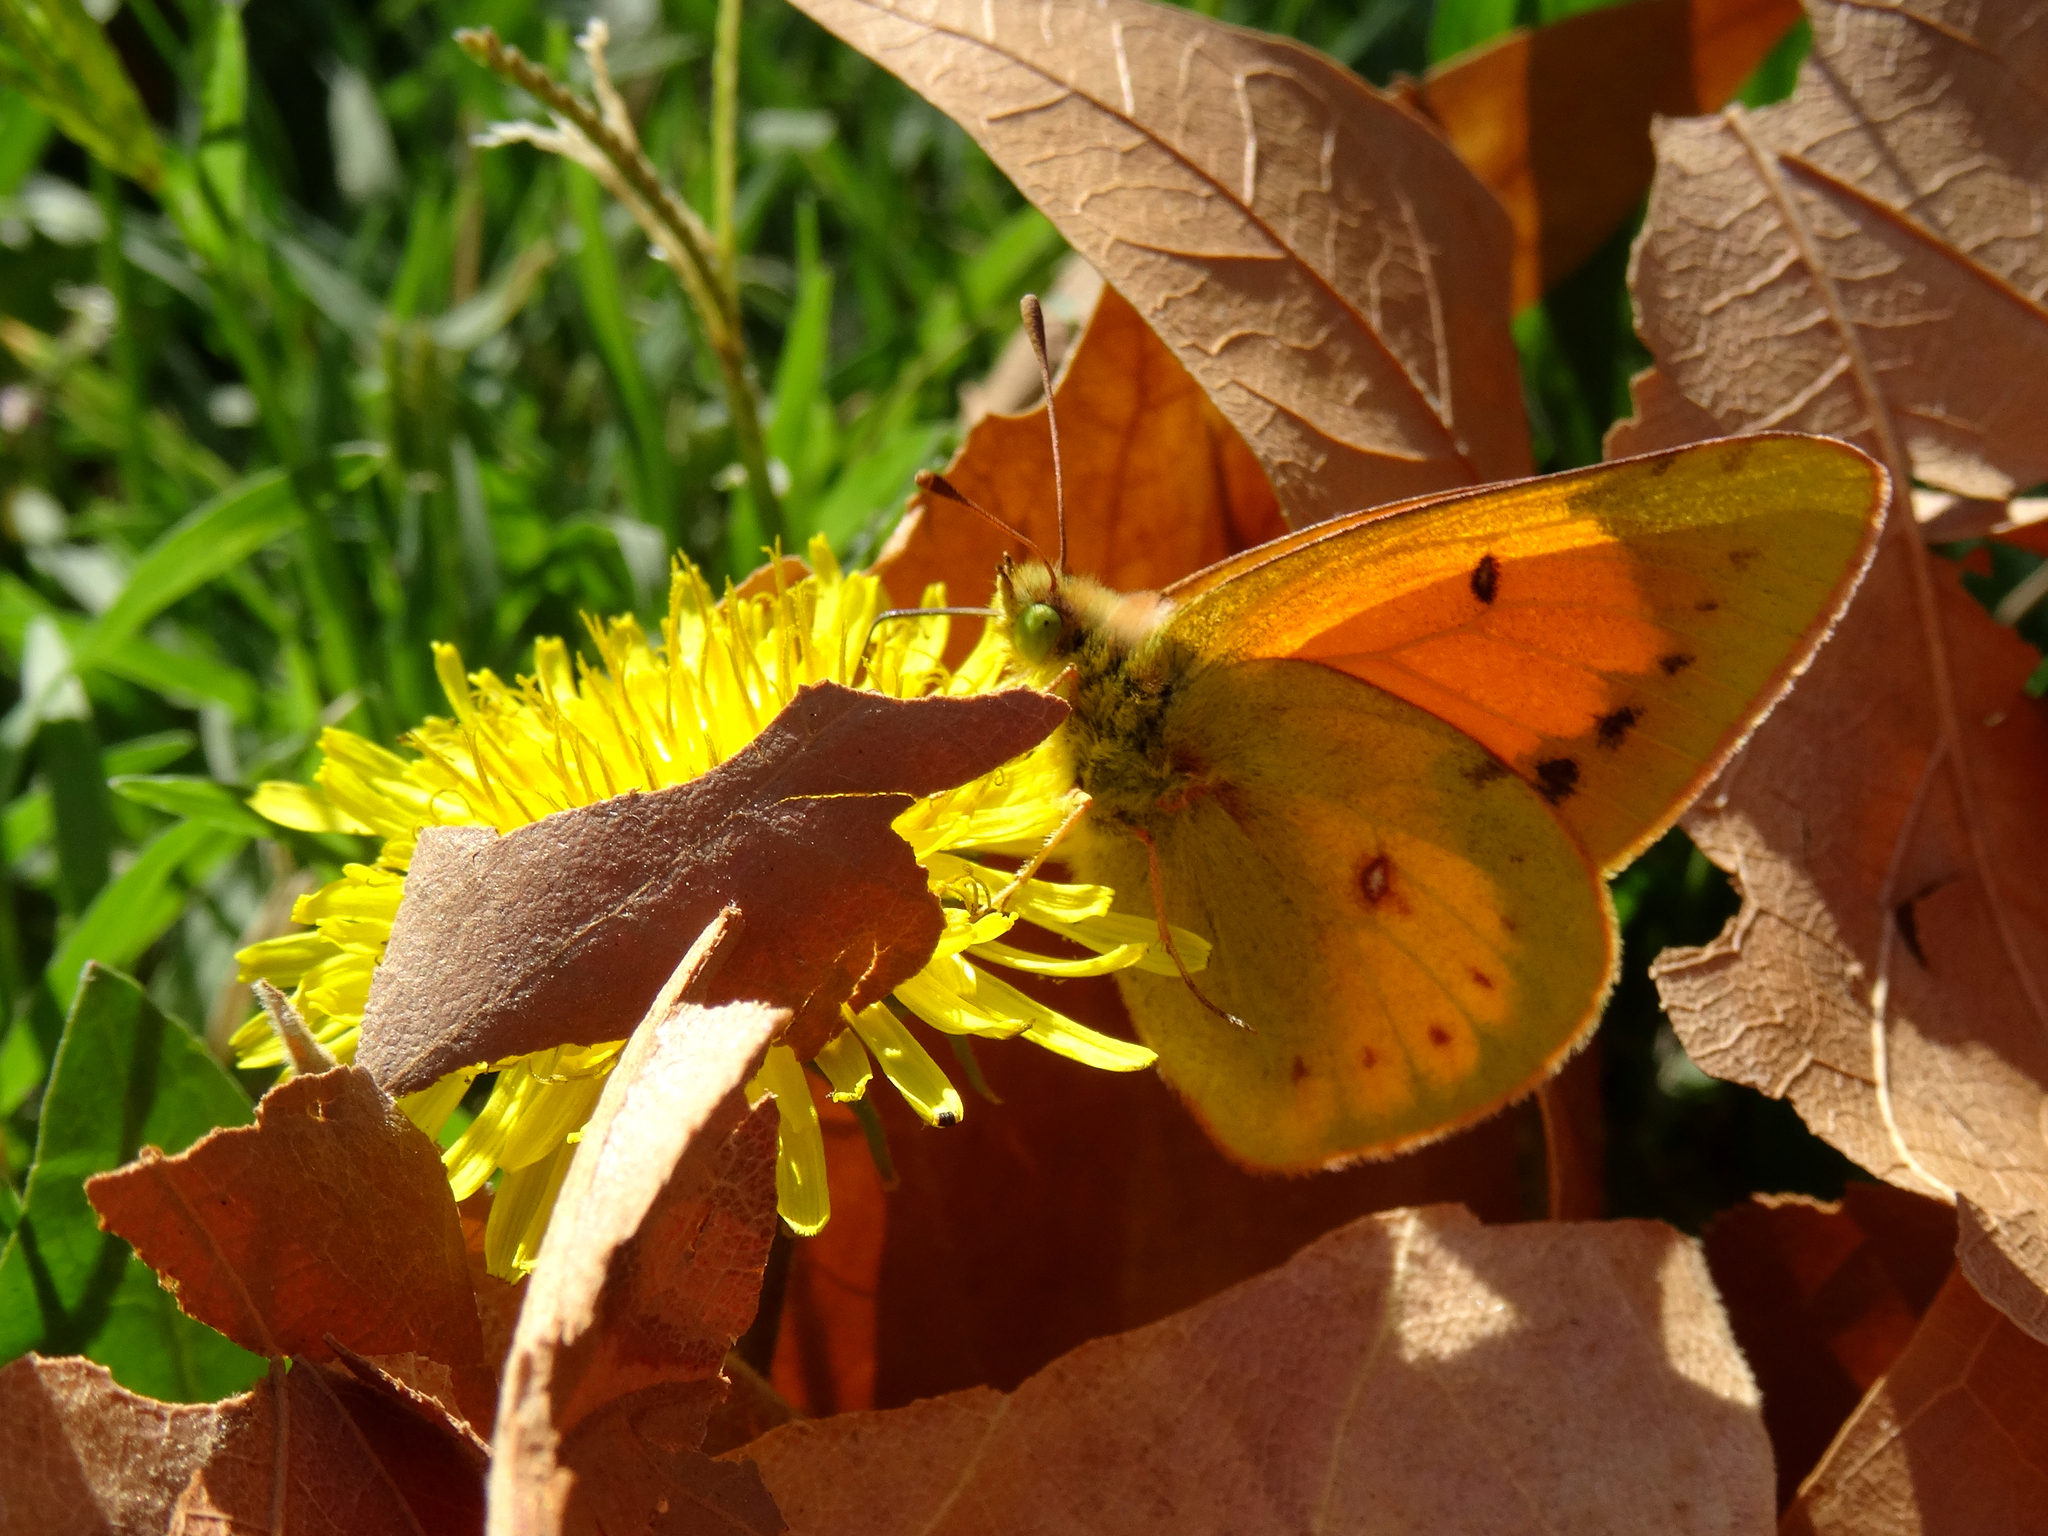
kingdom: Animalia
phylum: Arthropoda
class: Insecta
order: Lepidoptera
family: Pieridae
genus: Colias
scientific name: Colias vauthierii
